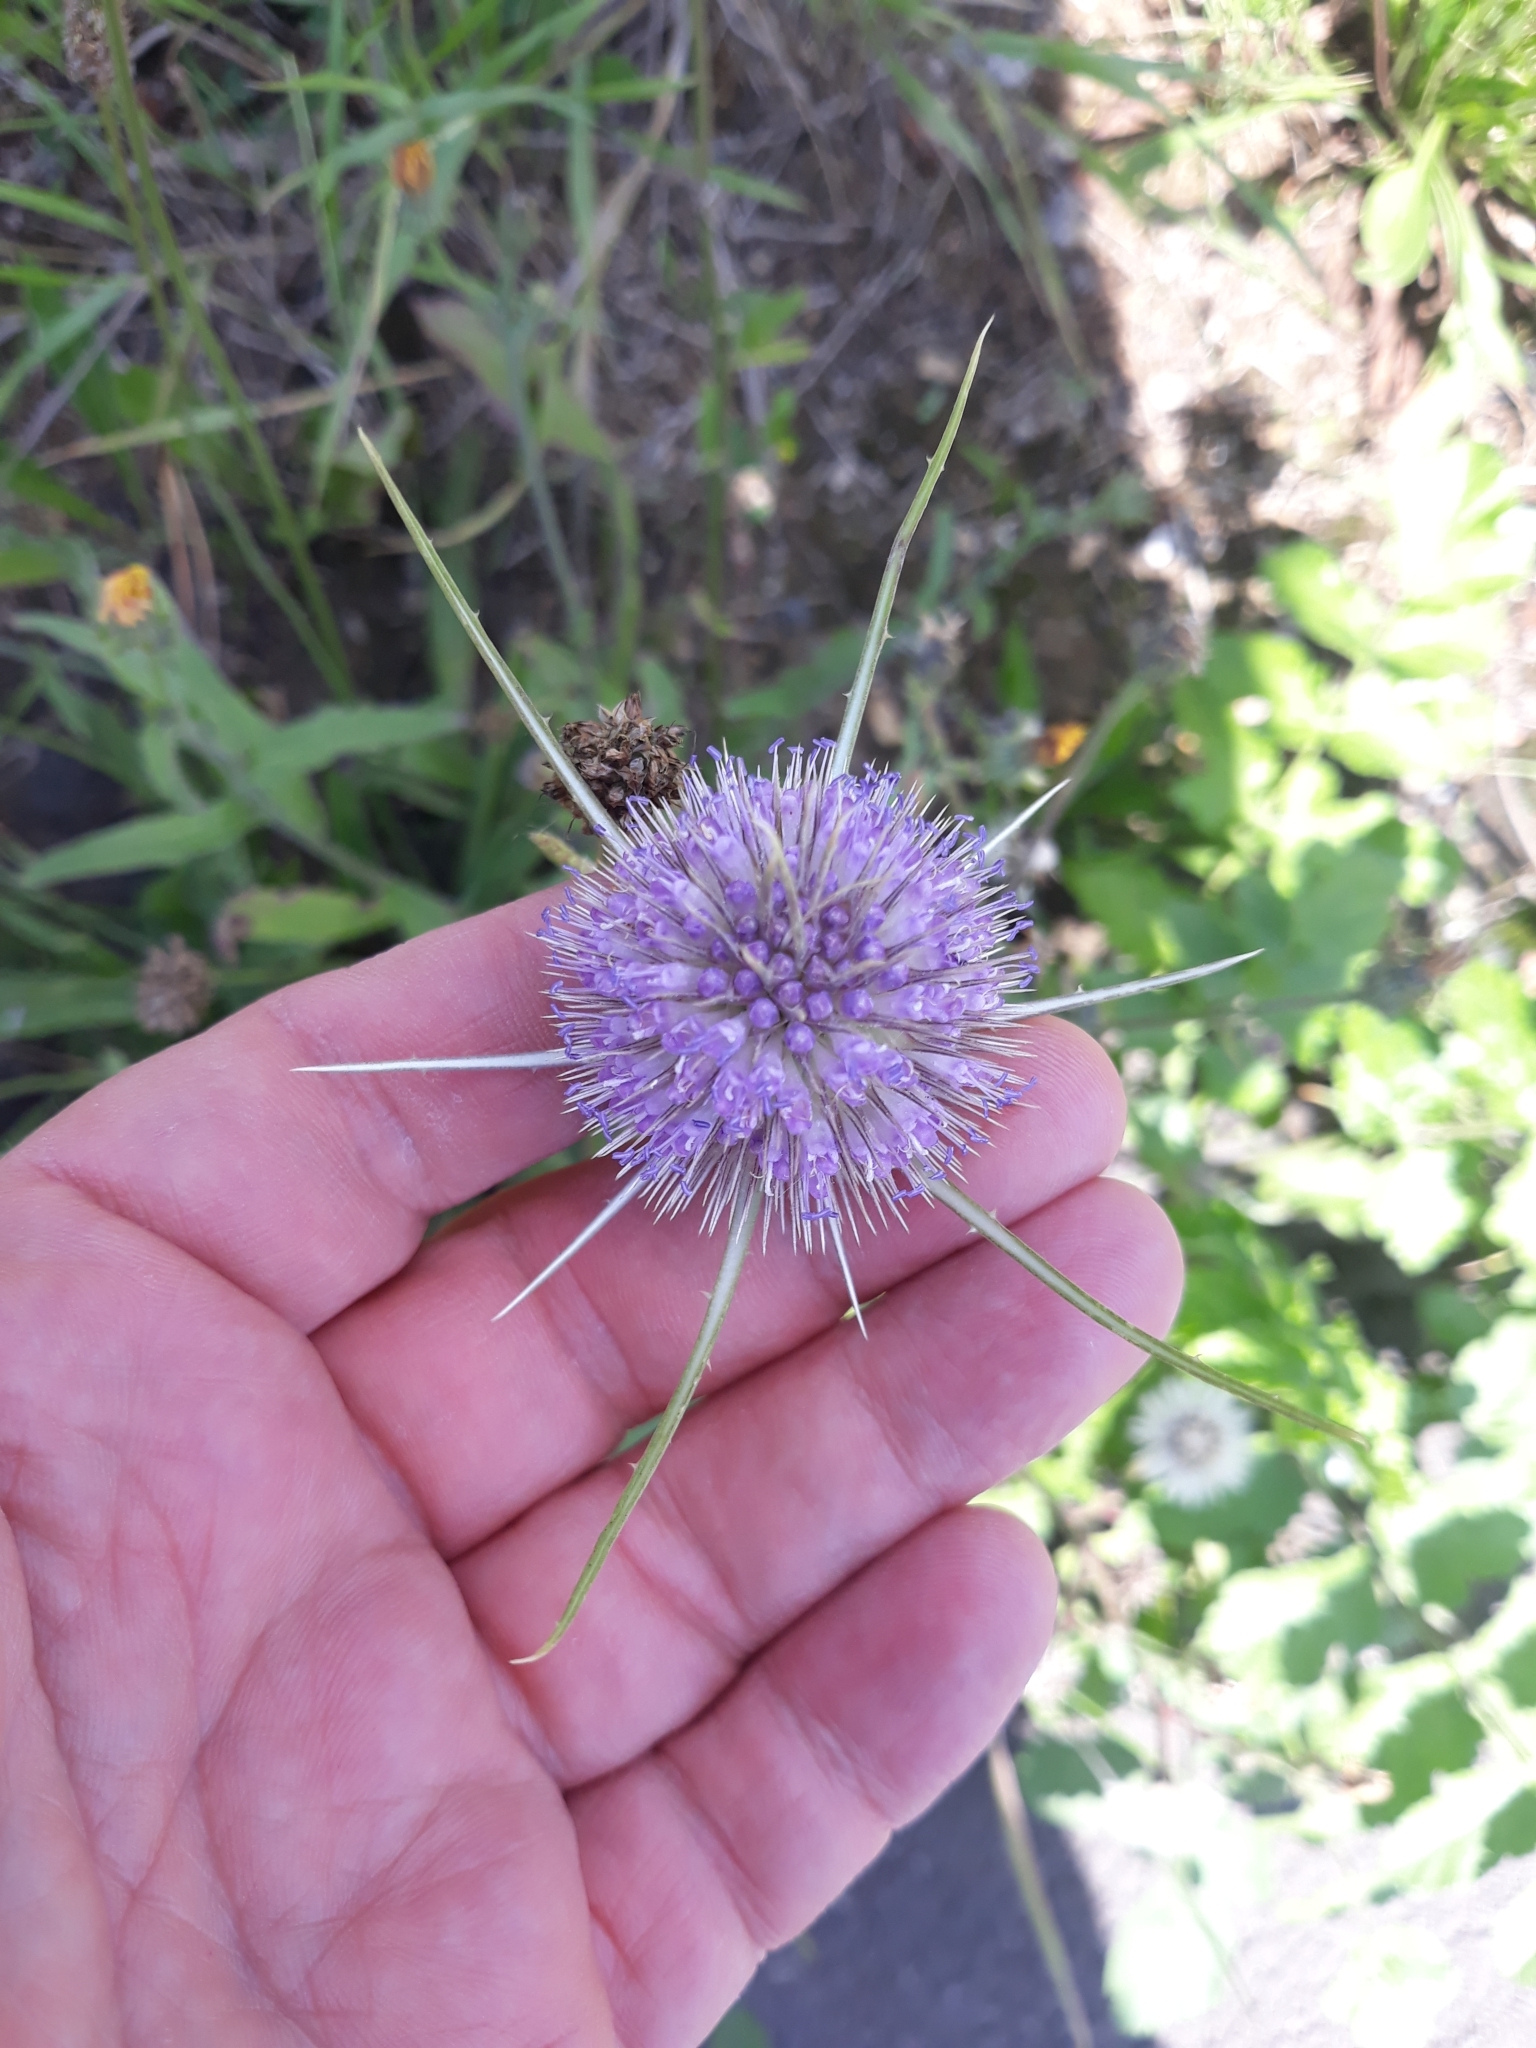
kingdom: Plantae
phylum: Tracheophyta
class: Magnoliopsida
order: Dipsacales
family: Caprifoliaceae
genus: Dipsacus
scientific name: Dipsacus fullonum
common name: Teasel
